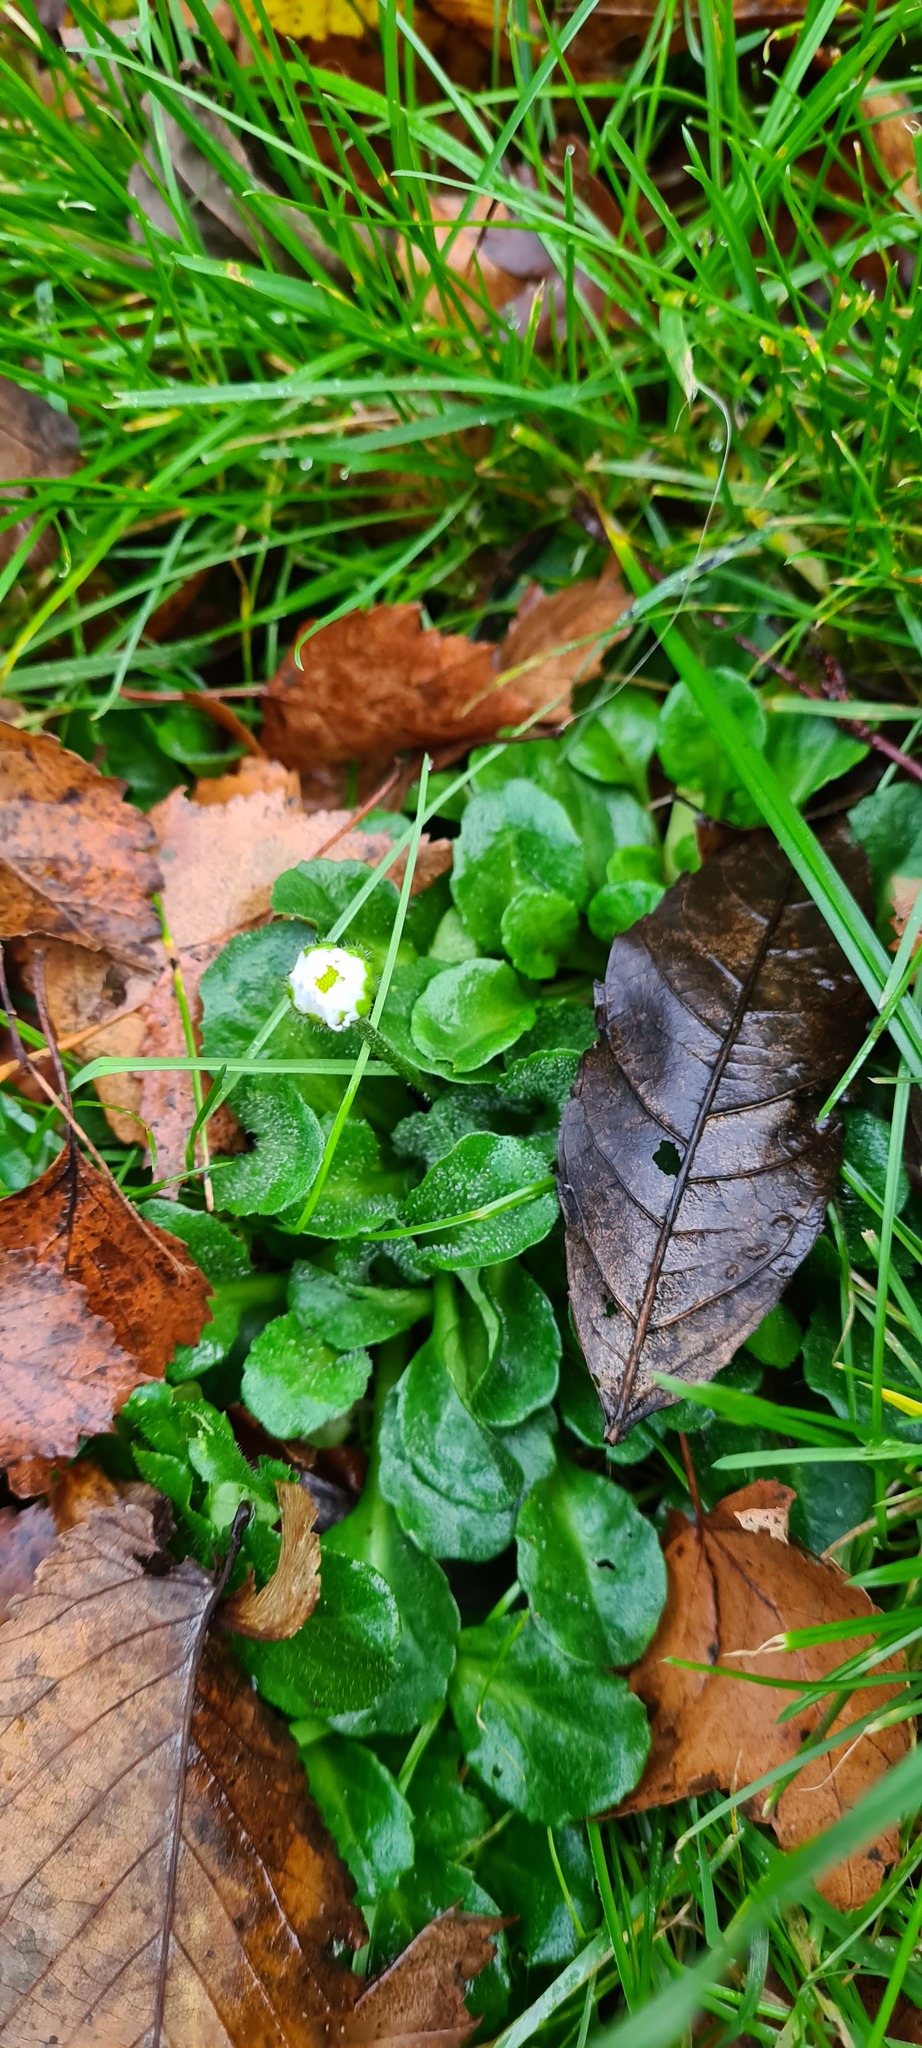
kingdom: Plantae
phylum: Tracheophyta
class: Magnoliopsida
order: Asterales
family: Asteraceae
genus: Bellis
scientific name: Bellis perennis
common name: Lawndaisy
